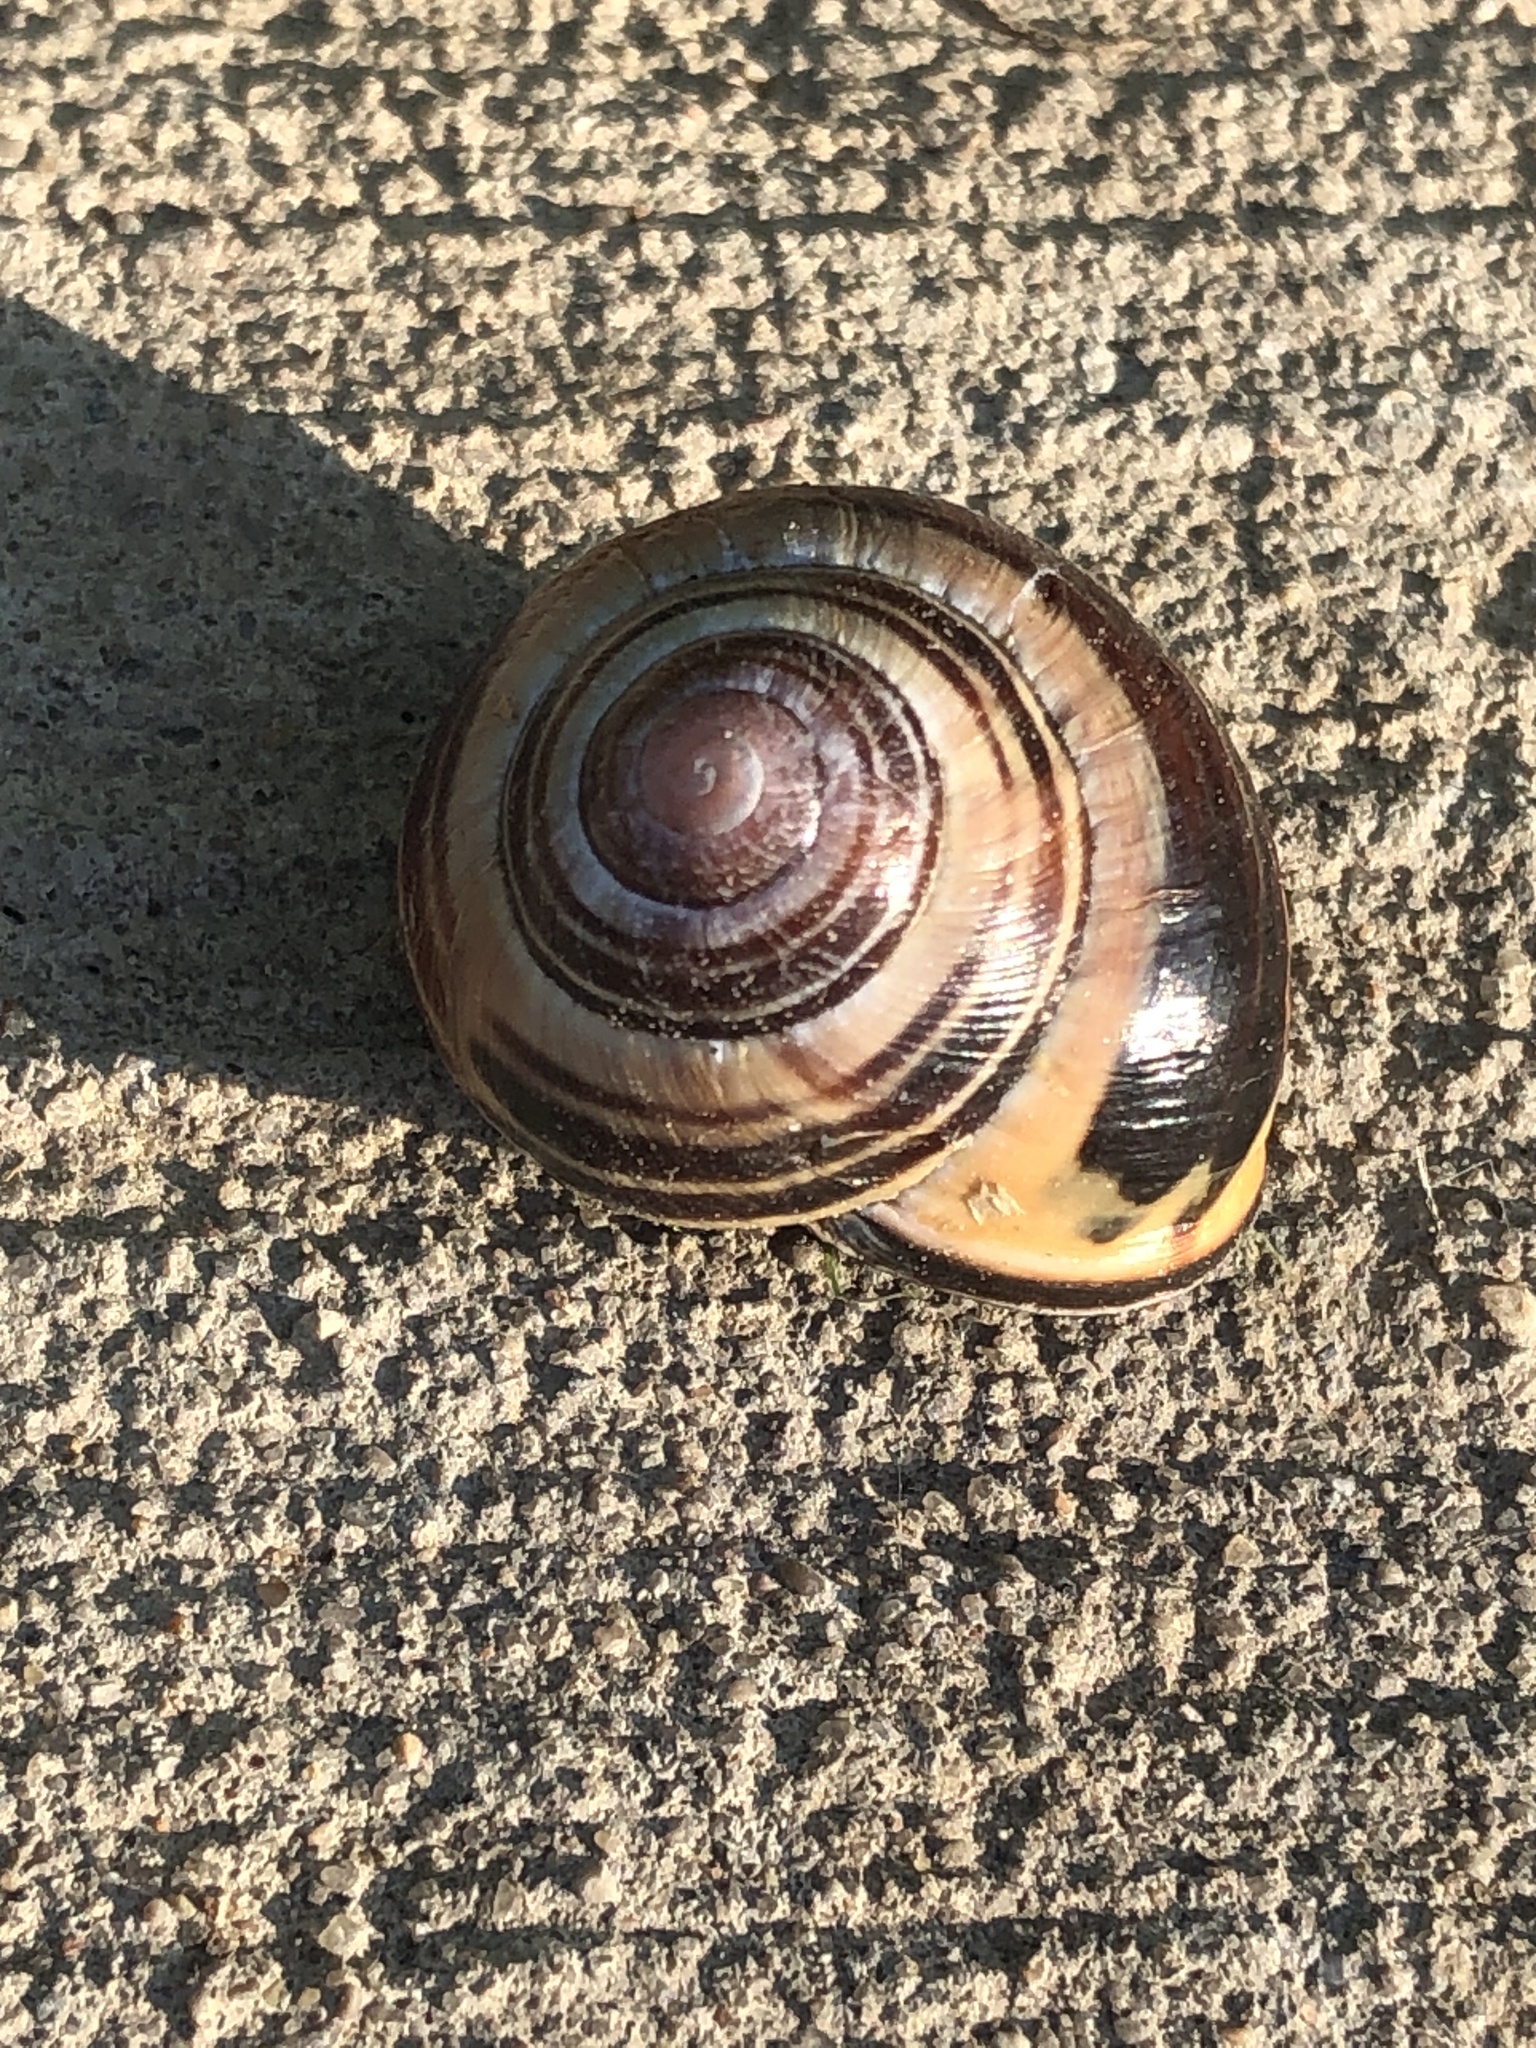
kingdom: Animalia
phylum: Mollusca
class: Gastropoda
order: Stylommatophora
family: Helicidae
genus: Cepaea
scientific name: Cepaea nemoralis
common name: Grovesnail
